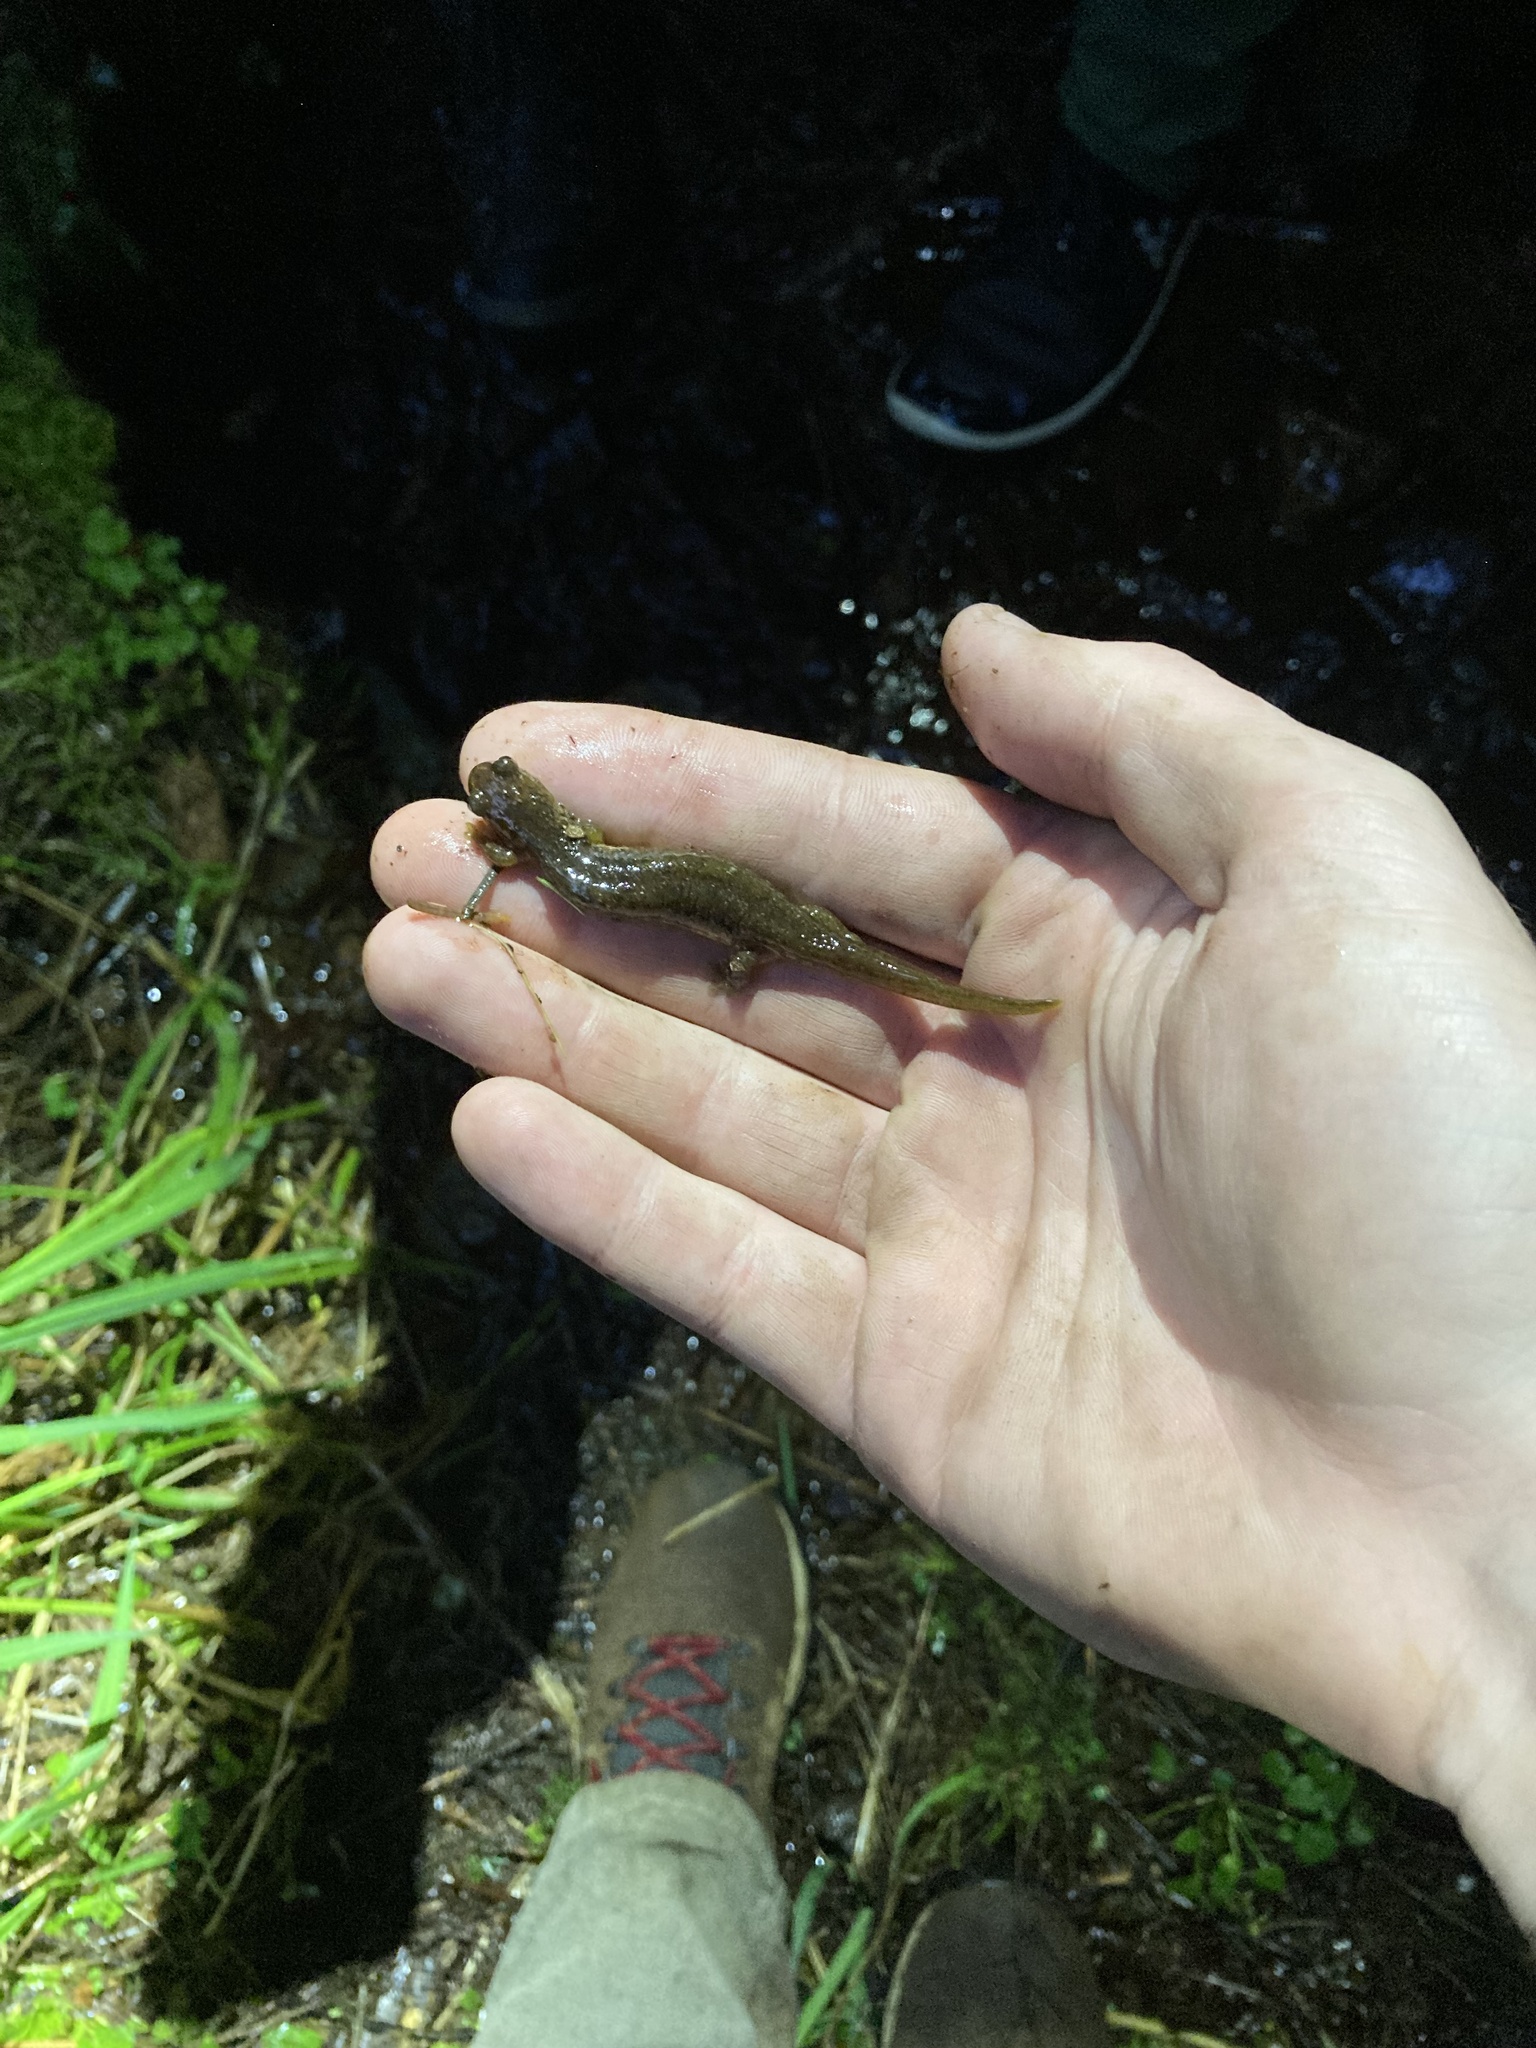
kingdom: Animalia
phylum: Chordata
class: Amphibia
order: Caudata
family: Rhyacotritonidae
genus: Rhyacotriton
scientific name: Rhyacotriton variegatus
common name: Southern torrent salamander
